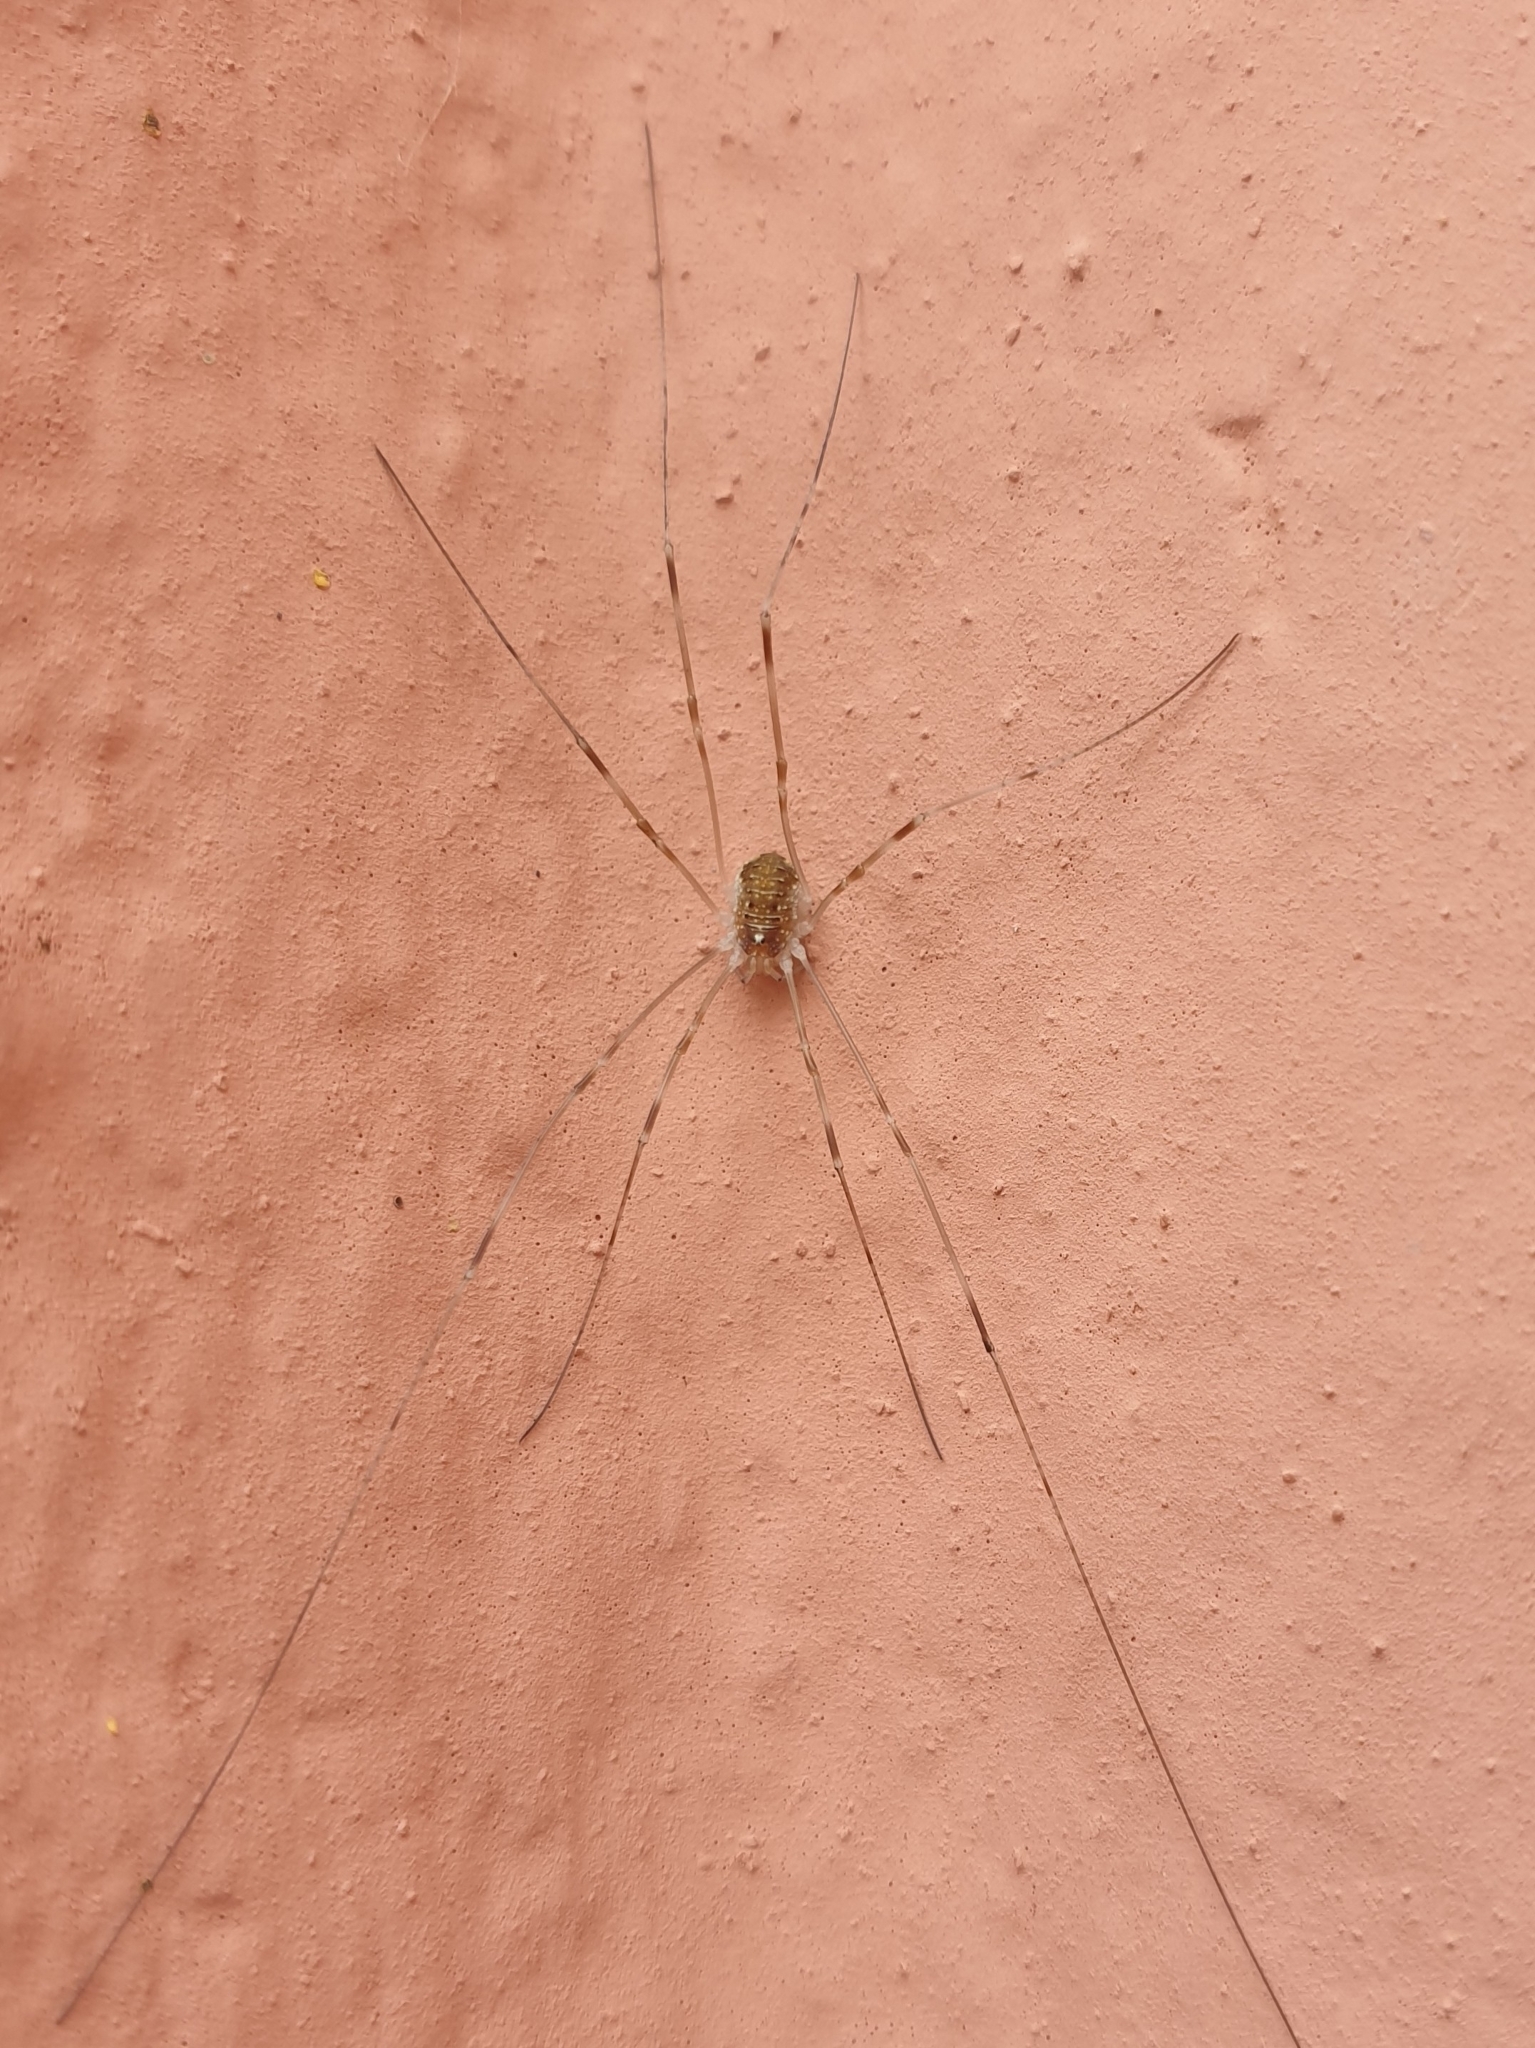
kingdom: Animalia
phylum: Arthropoda
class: Arachnida
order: Opiliones
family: Phalangiidae
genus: Opilio
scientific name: Opilio canestrinii
